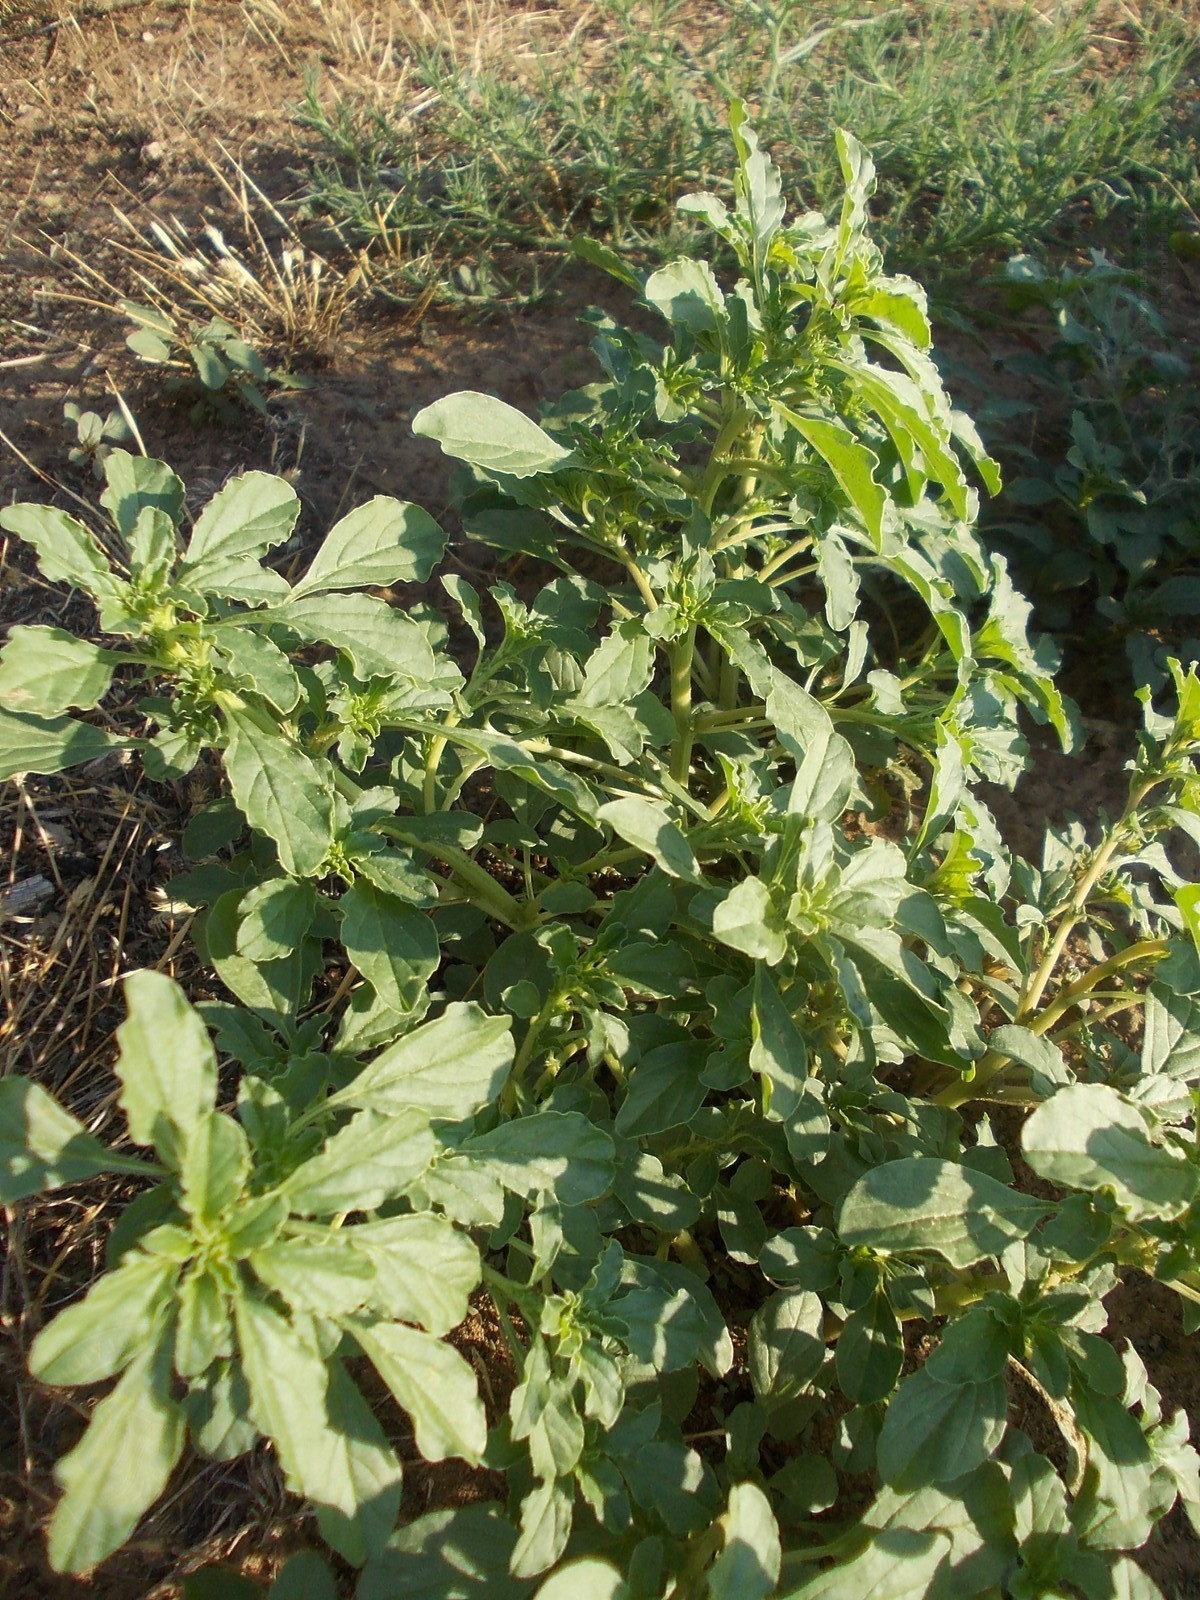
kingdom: Plantae
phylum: Tracheophyta
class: Magnoliopsida
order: Caryophyllales
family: Amaranthaceae
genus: Amaranthus
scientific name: Amaranthus albus
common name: White pigweed
